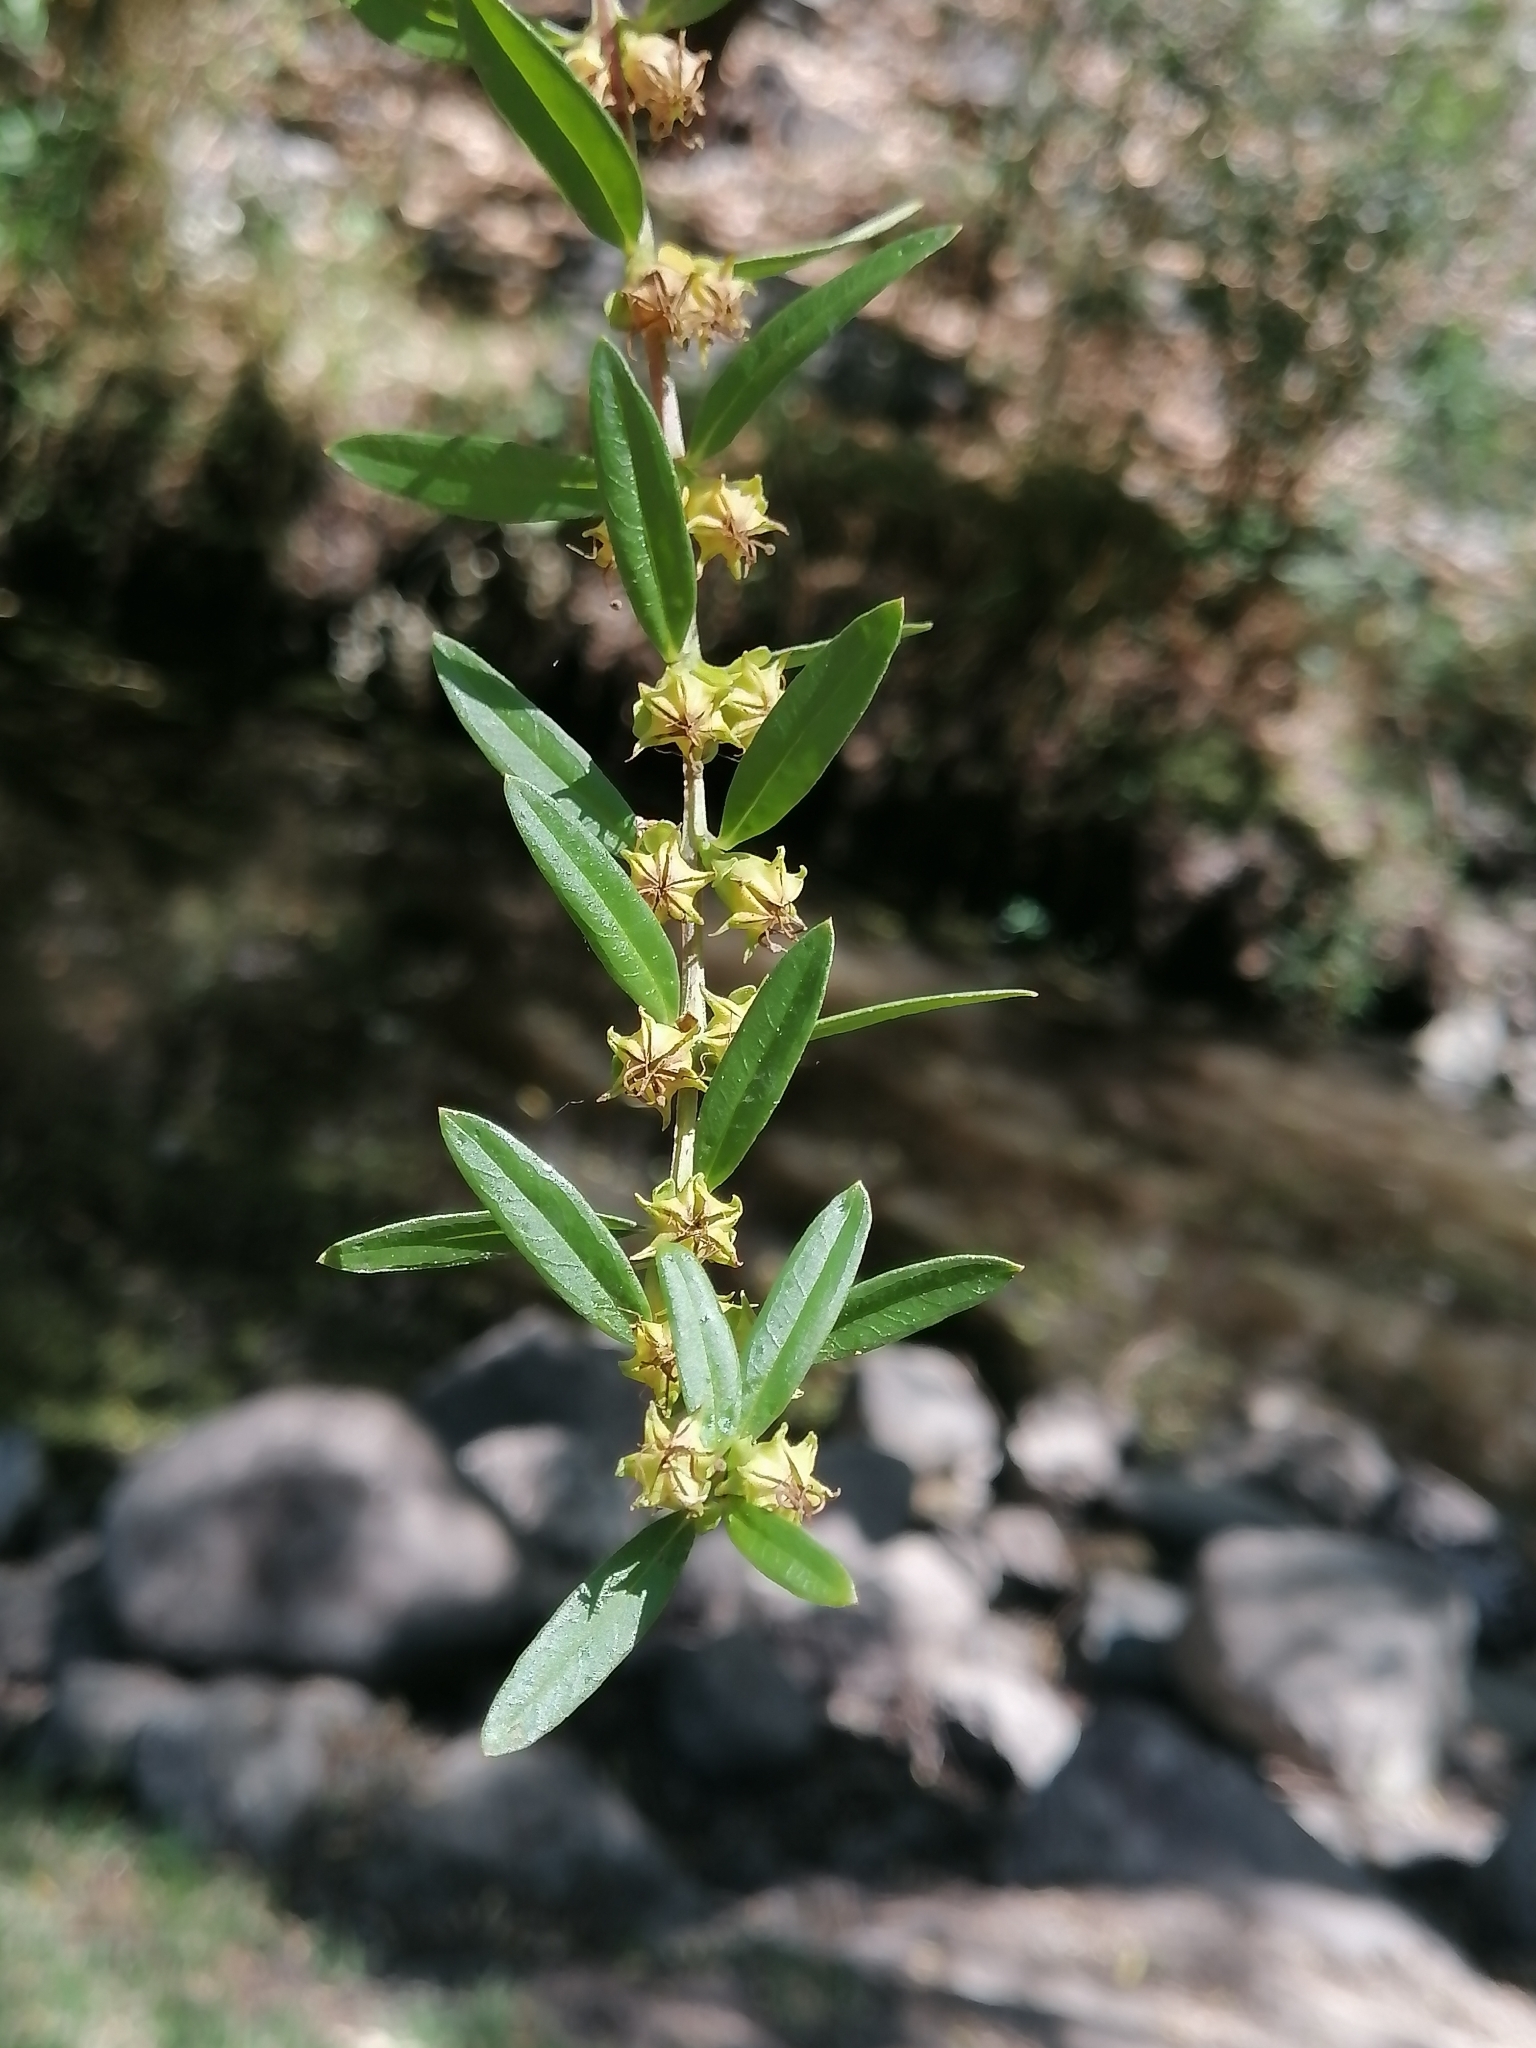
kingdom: Plantae
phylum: Tracheophyta
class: Magnoliopsida
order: Myrtales
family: Lythraceae
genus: Heimia
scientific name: Heimia salicifolia
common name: Willow-leaf heimia
